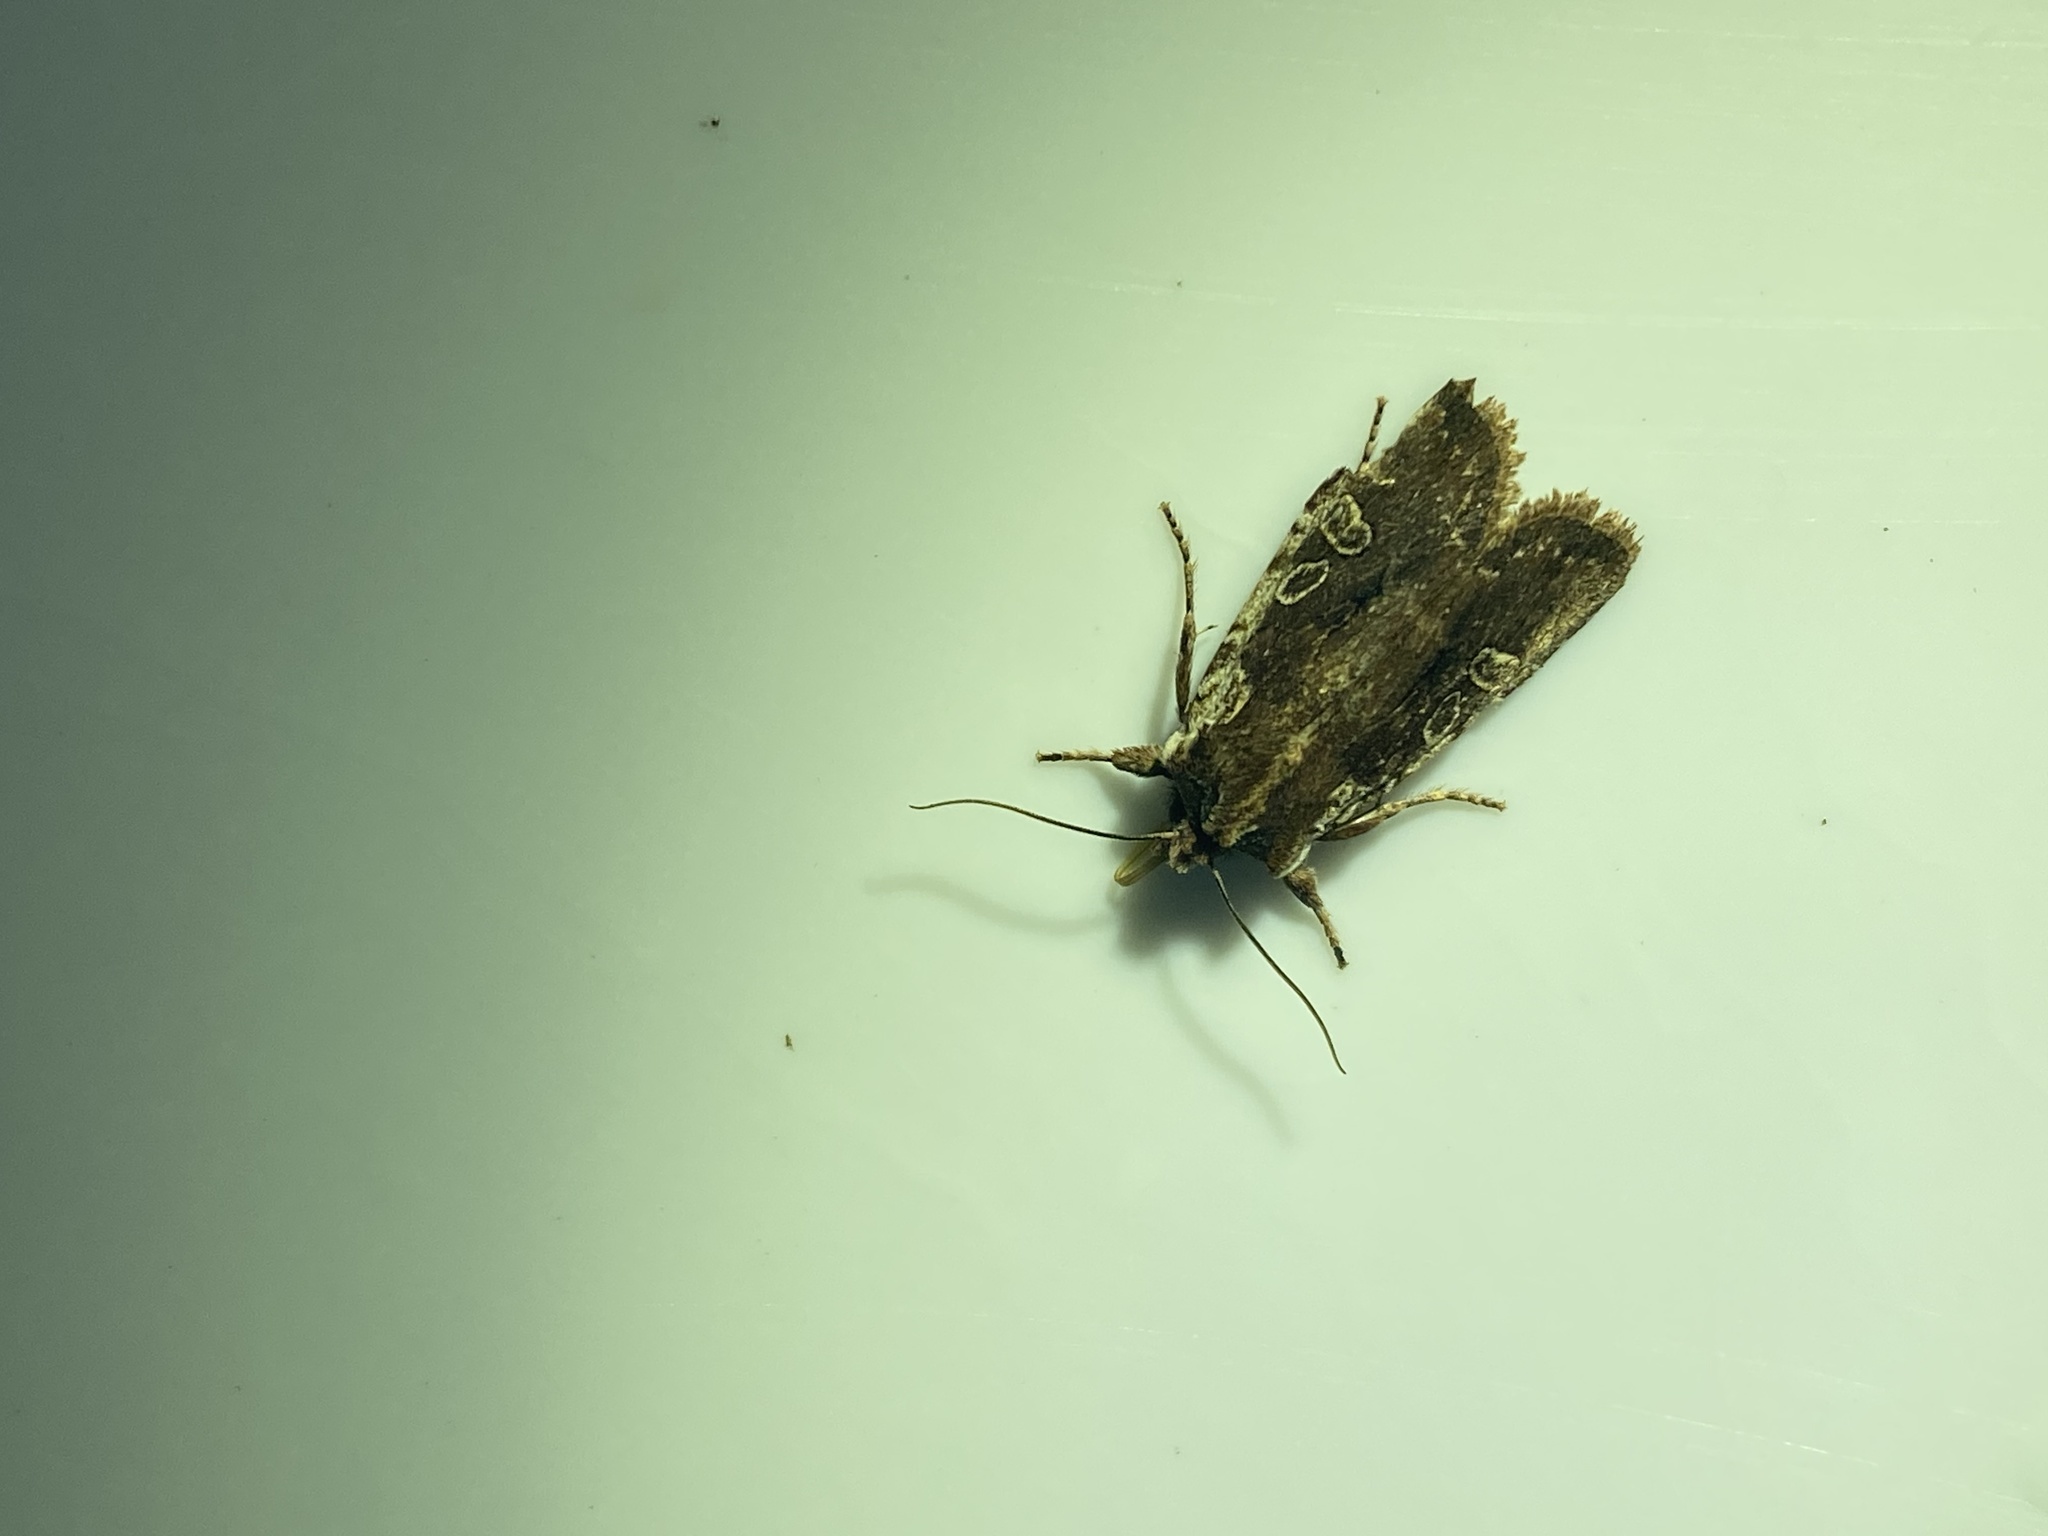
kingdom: Animalia
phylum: Arthropoda
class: Insecta
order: Lepidoptera
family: Noctuidae
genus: Lithophane
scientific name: Lithophane oriunda
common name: Immigrant pinion moth
